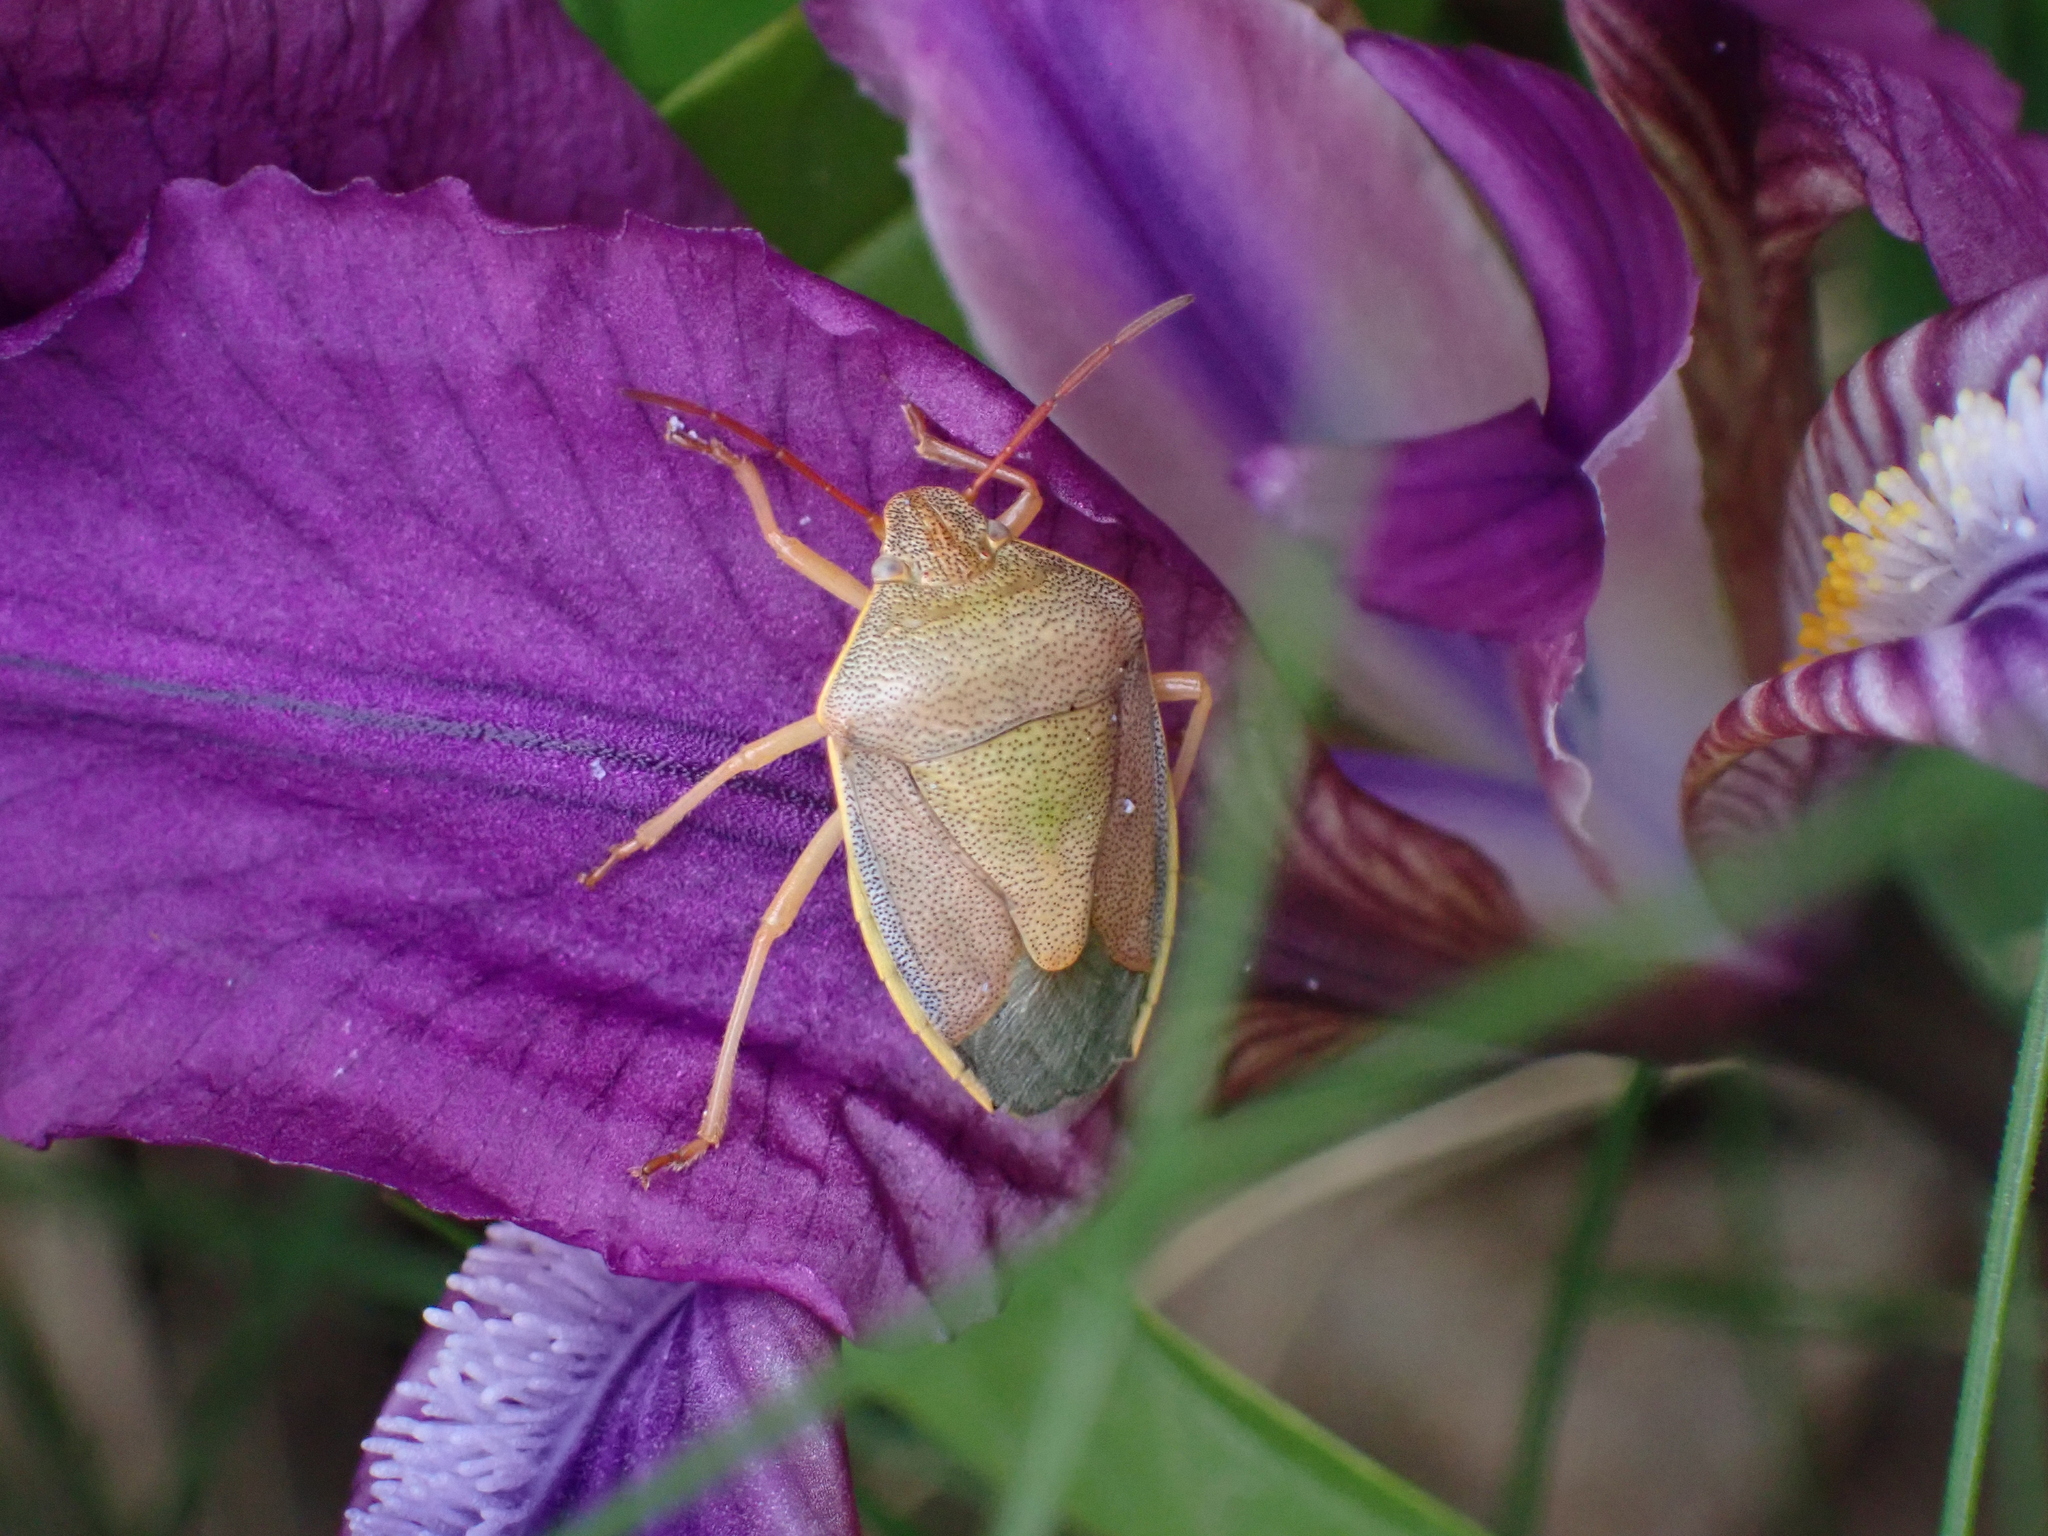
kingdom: Animalia
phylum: Arthropoda
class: Insecta
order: Hemiptera
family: Pentatomidae
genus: Piezodorus
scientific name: Piezodorus lituratus
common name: Stink bug
